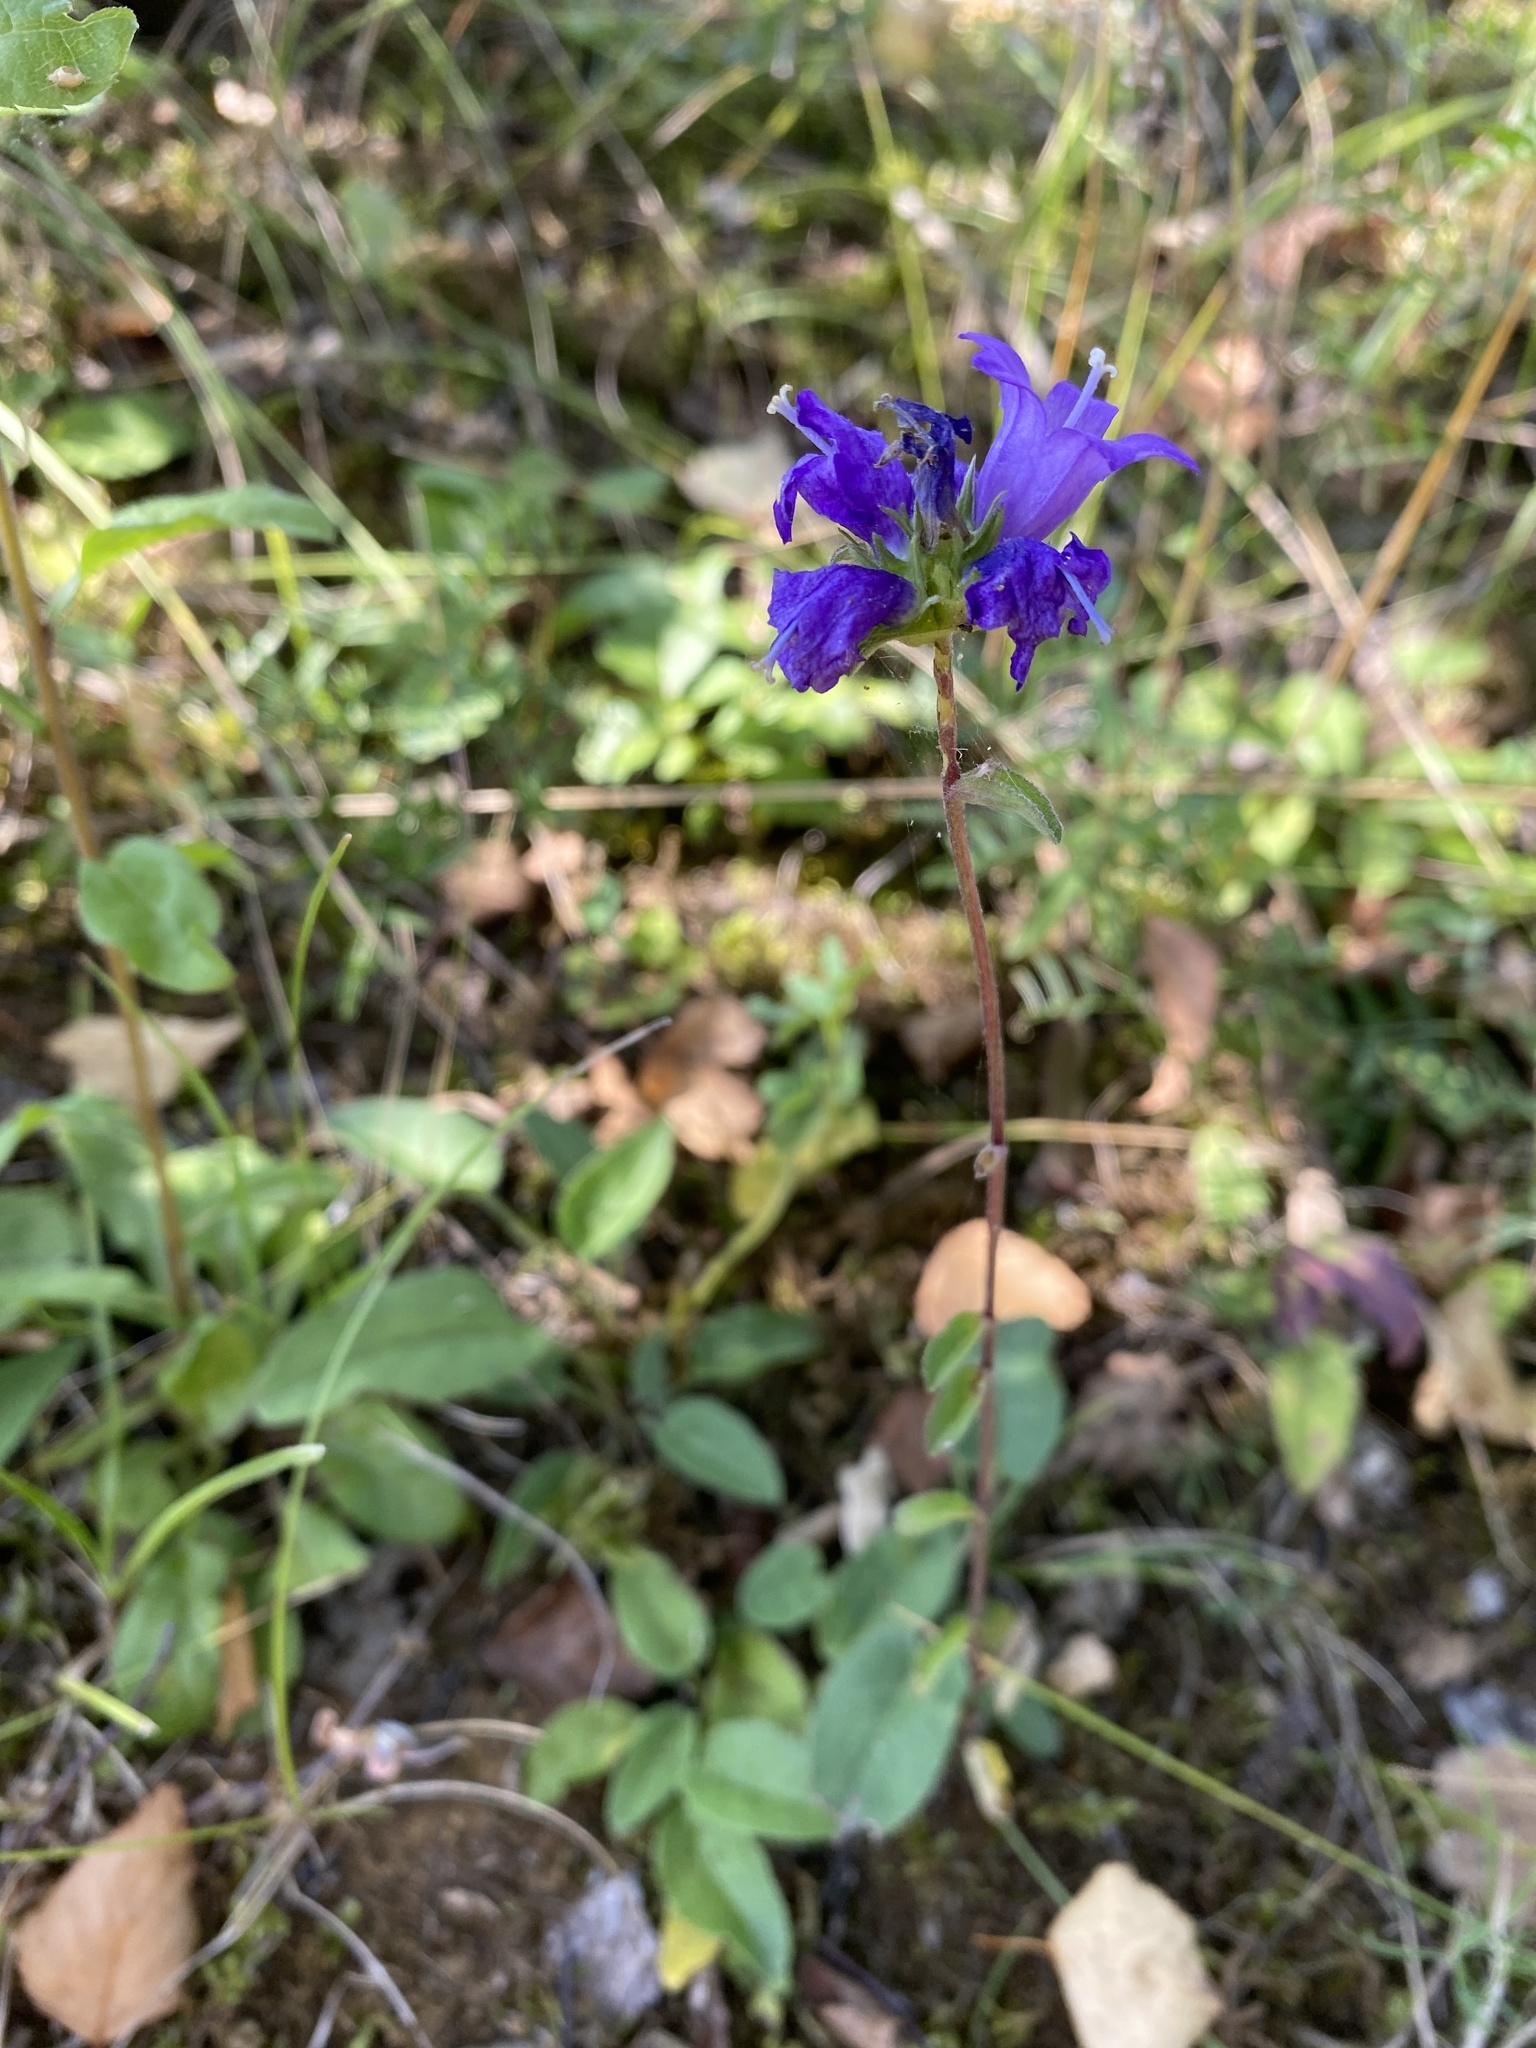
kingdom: Plantae
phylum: Tracheophyta
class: Magnoliopsida
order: Asterales
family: Campanulaceae
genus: Campanula
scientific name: Campanula glomerata
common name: Clustered bellflower
